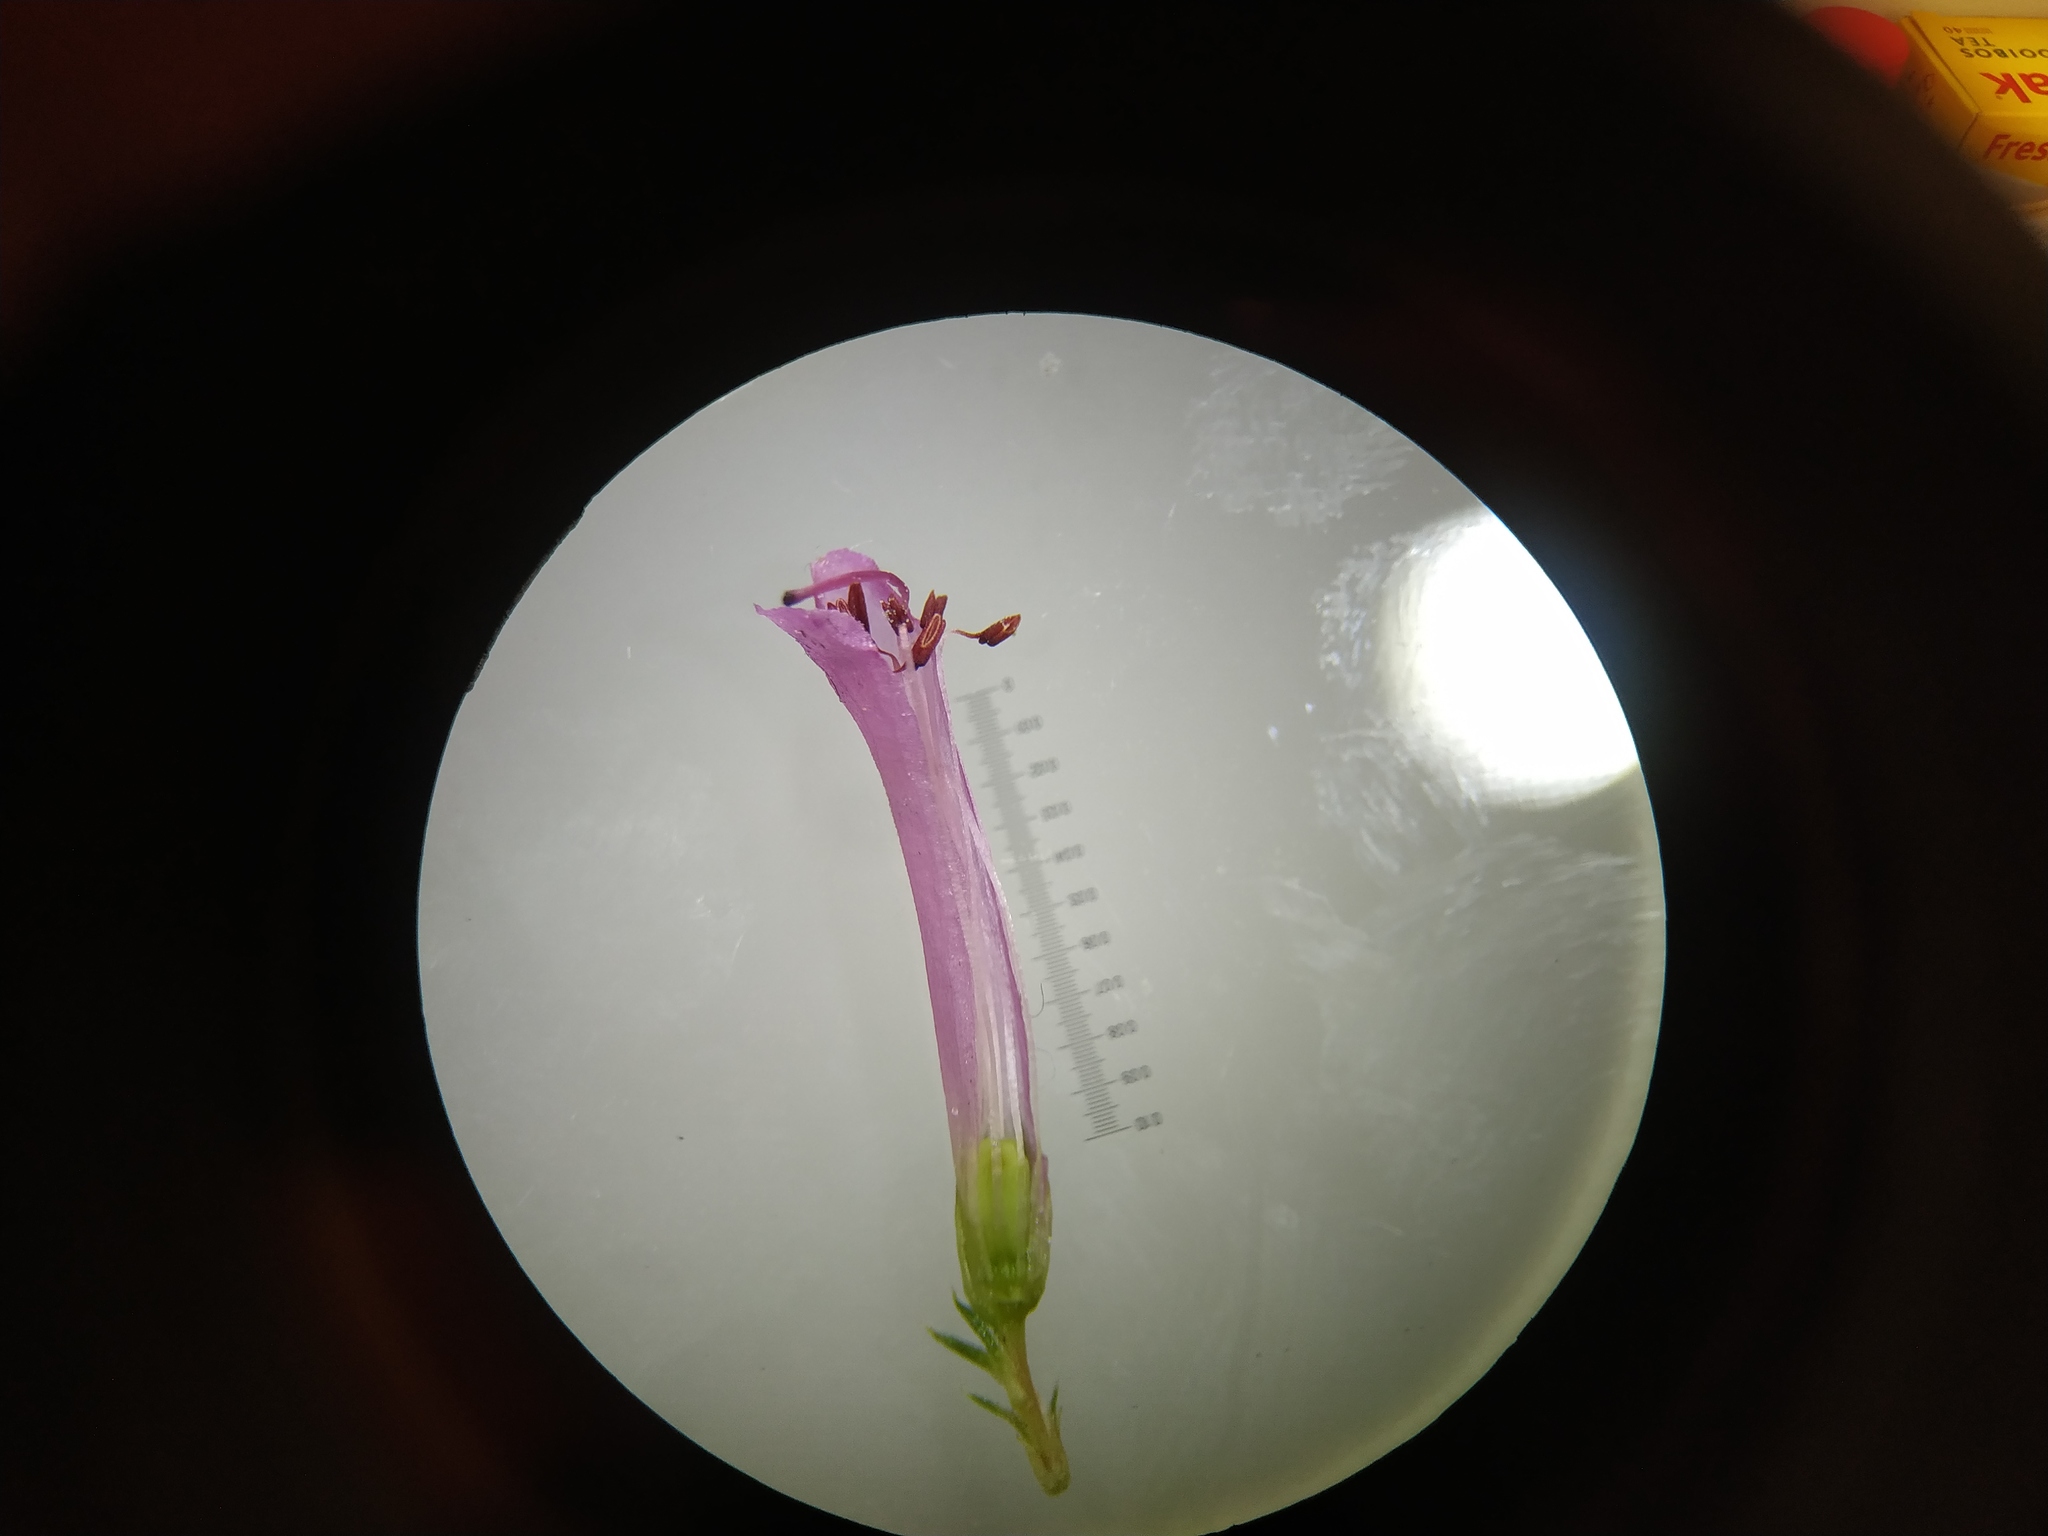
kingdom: Plantae
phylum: Tracheophyta
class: Magnoliopsida
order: Ericales
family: Ericaceae
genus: Erica
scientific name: Erica abietina
